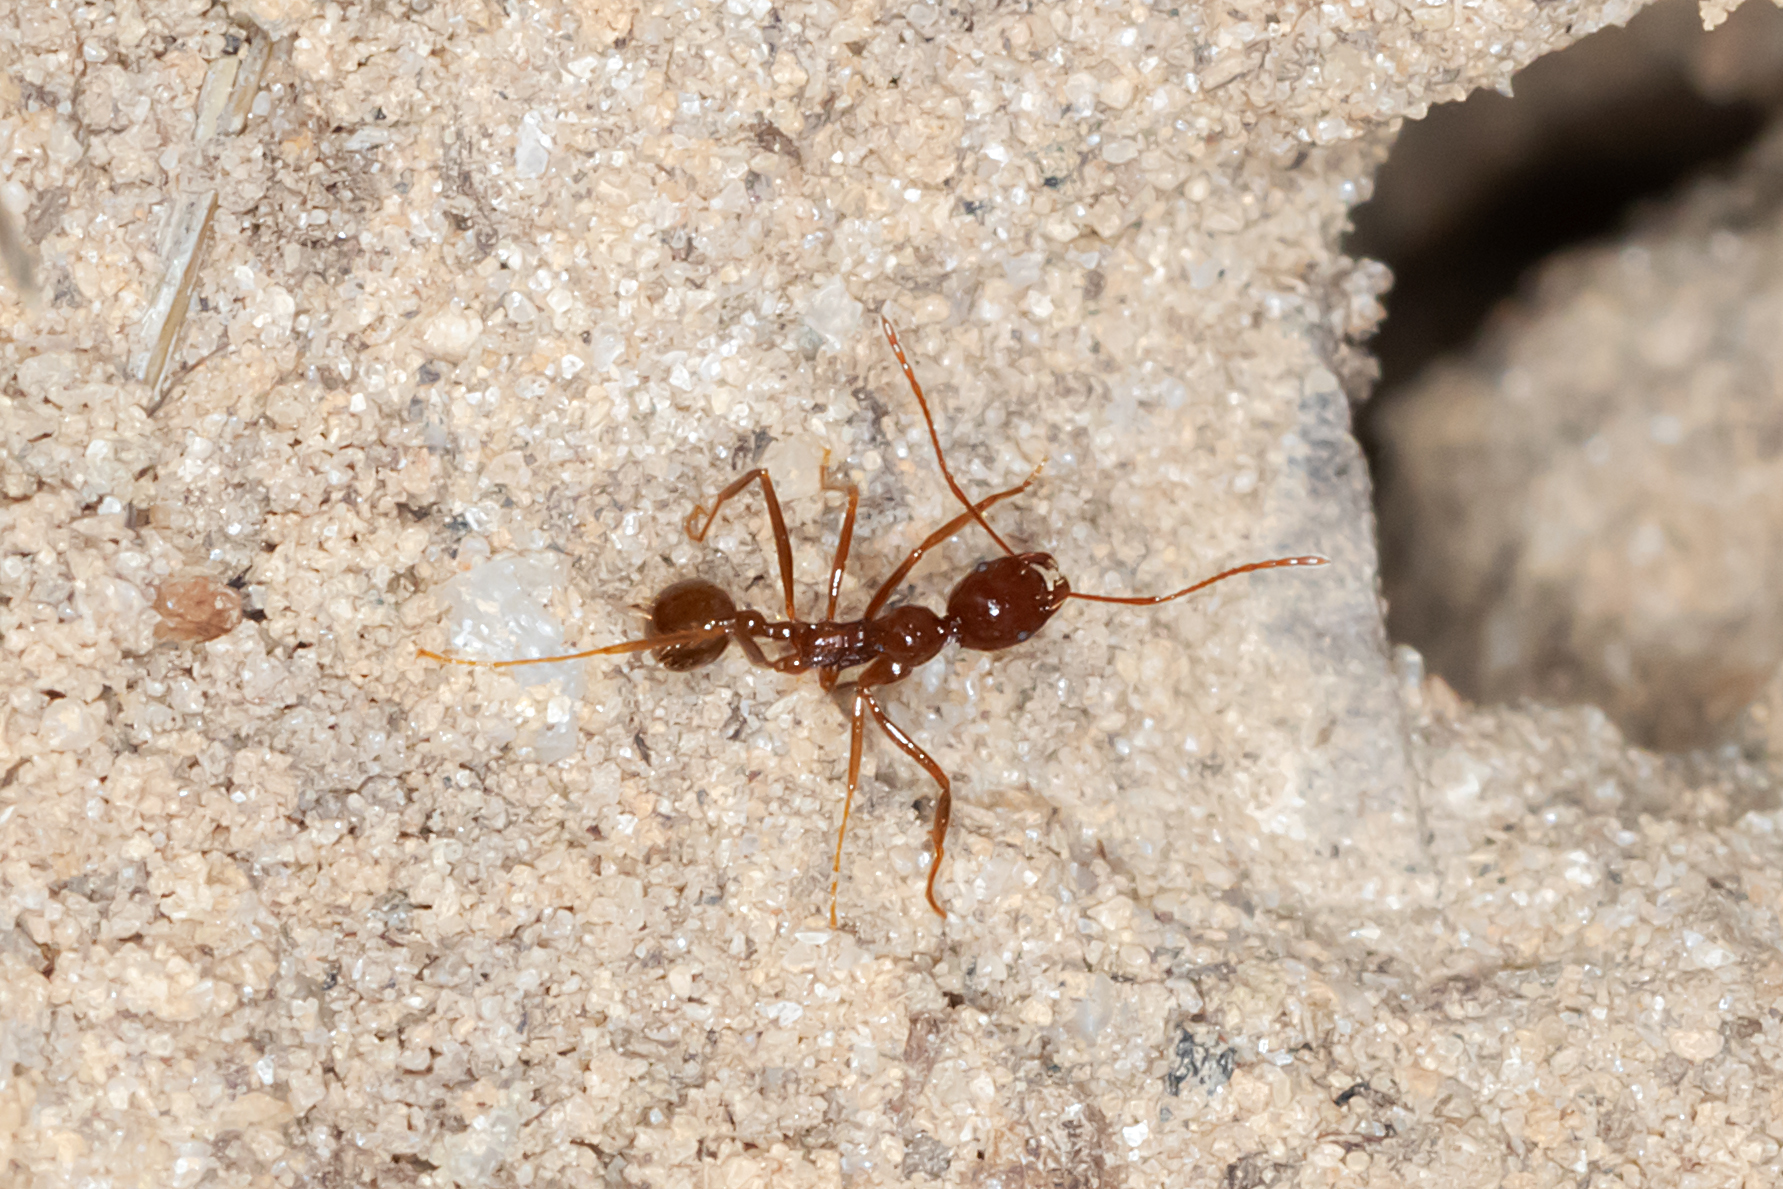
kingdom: Animalia
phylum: Arthropoda
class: Insecta
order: Hymenoptera
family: Formicidae
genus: Aphaenogaster
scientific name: Aphaenogaster longiceps
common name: Funnel ant
